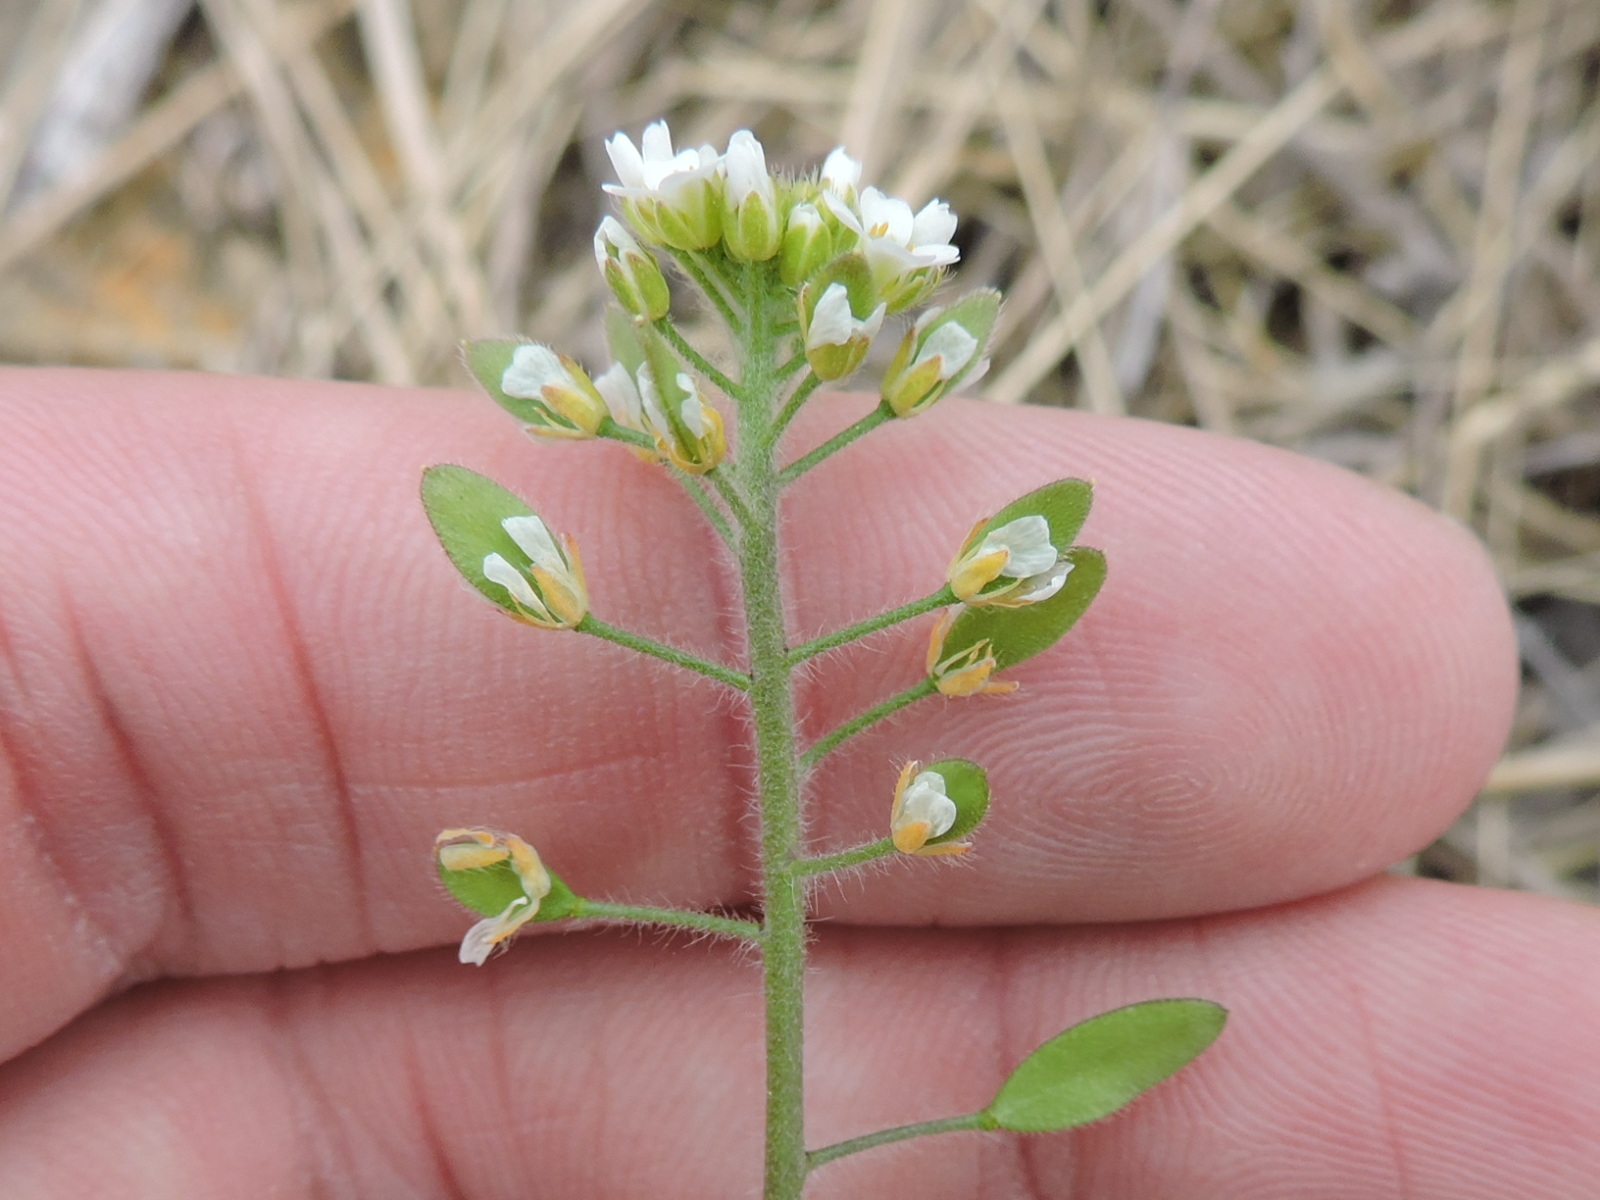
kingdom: Plantae
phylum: Tracheophyta
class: Magnoliopsida
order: Brassicales
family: Brassicaceae
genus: Tomostima
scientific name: Tomostima platycarpa
